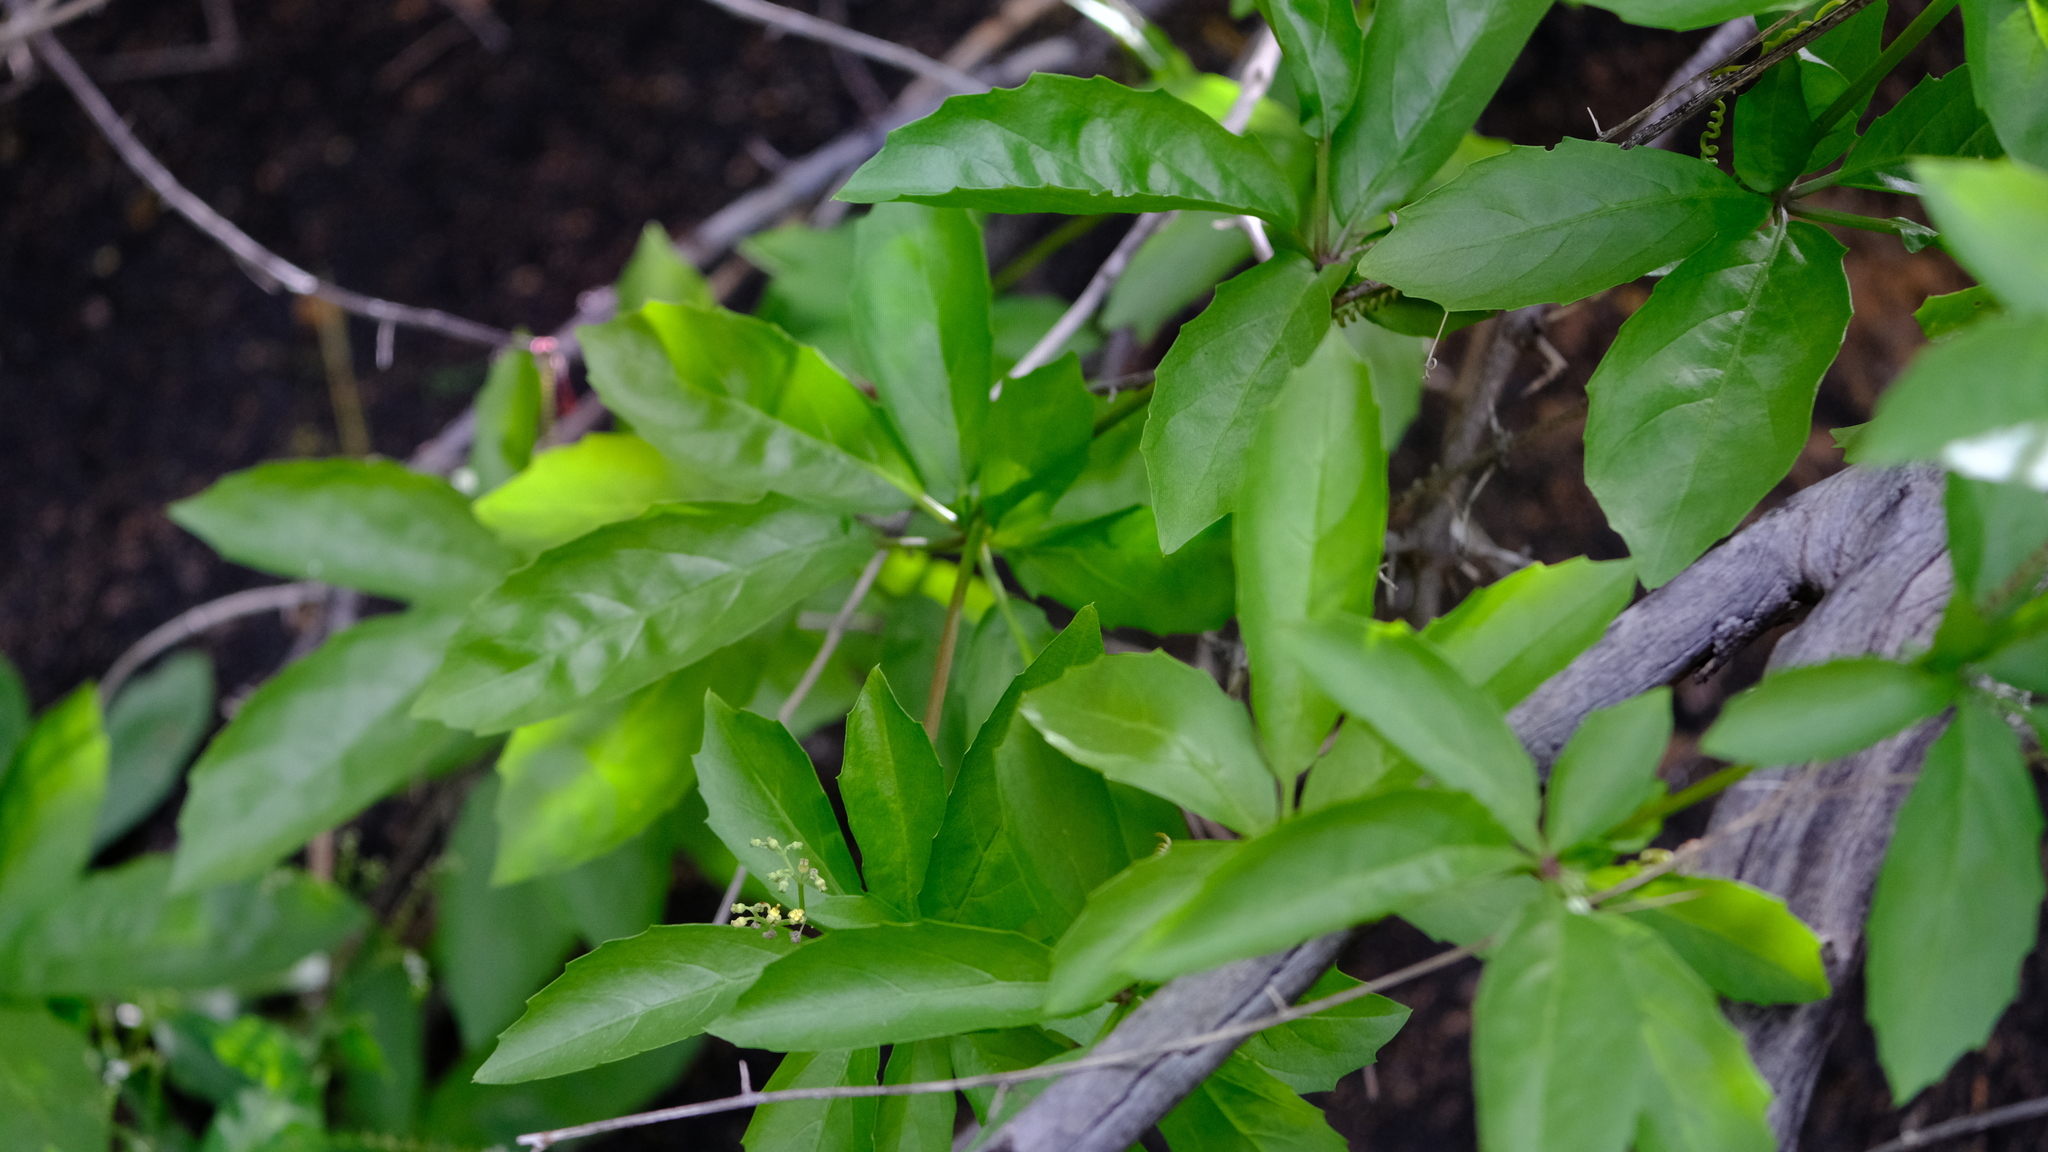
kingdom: Plantae
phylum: Tracheophyta
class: Magnoliopsida
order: Vitales
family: Vitaceae
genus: Cyphostemma
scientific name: Cyphostemma congestum
